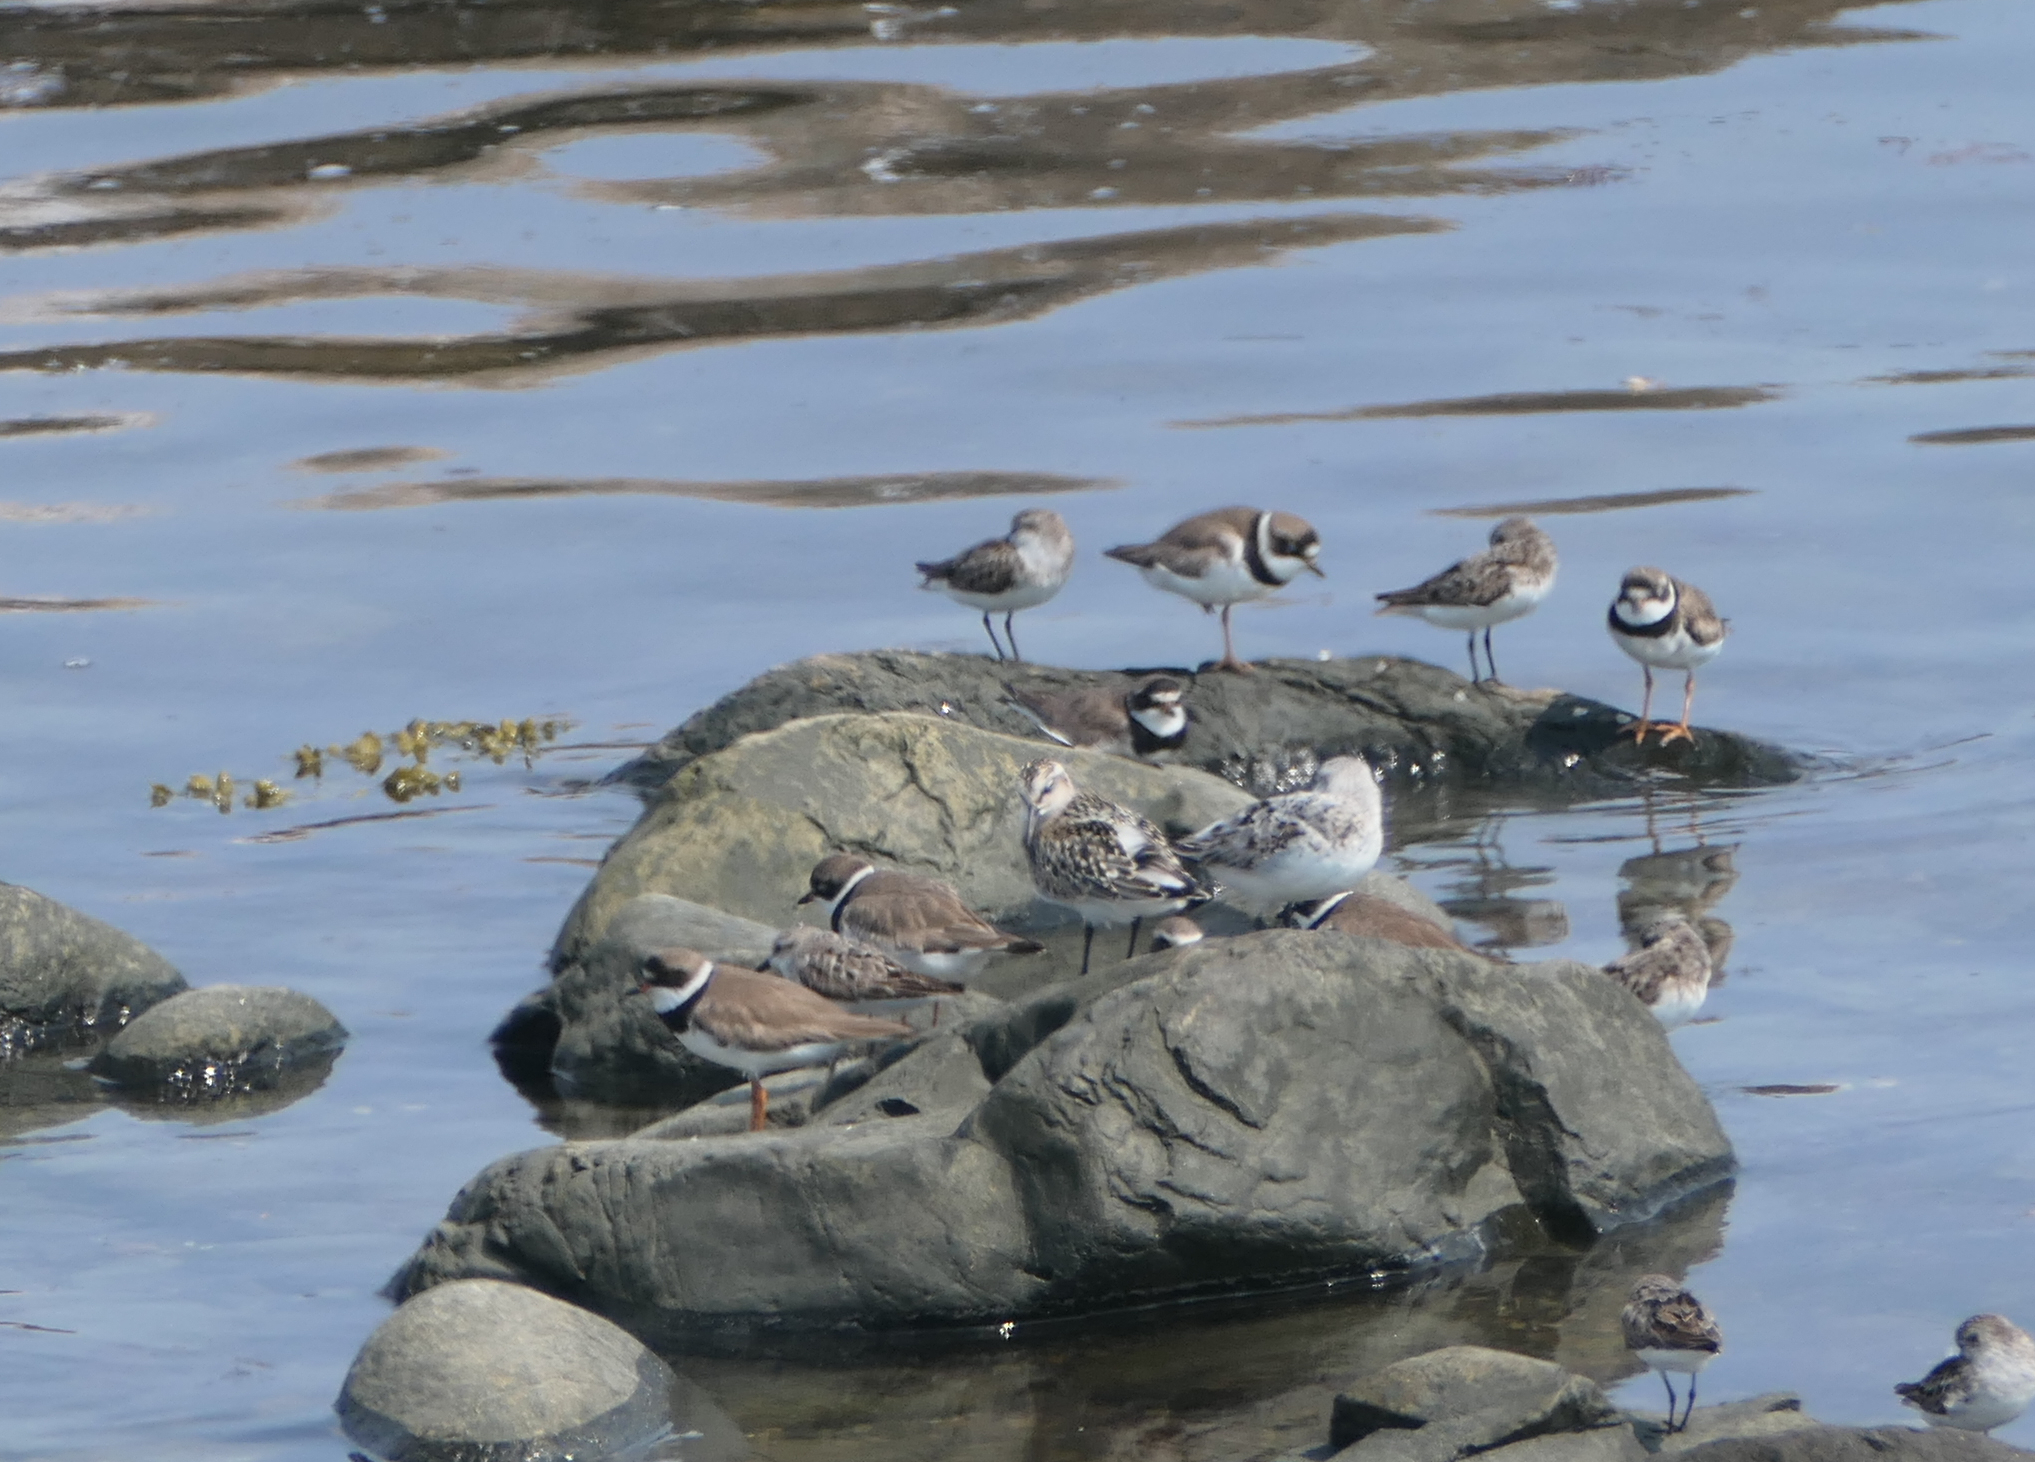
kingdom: Animalia
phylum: Chordata
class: Aves
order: Charadriiformes
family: Scolopacidae
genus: Calidris
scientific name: Calidris alba
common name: Sanderling
